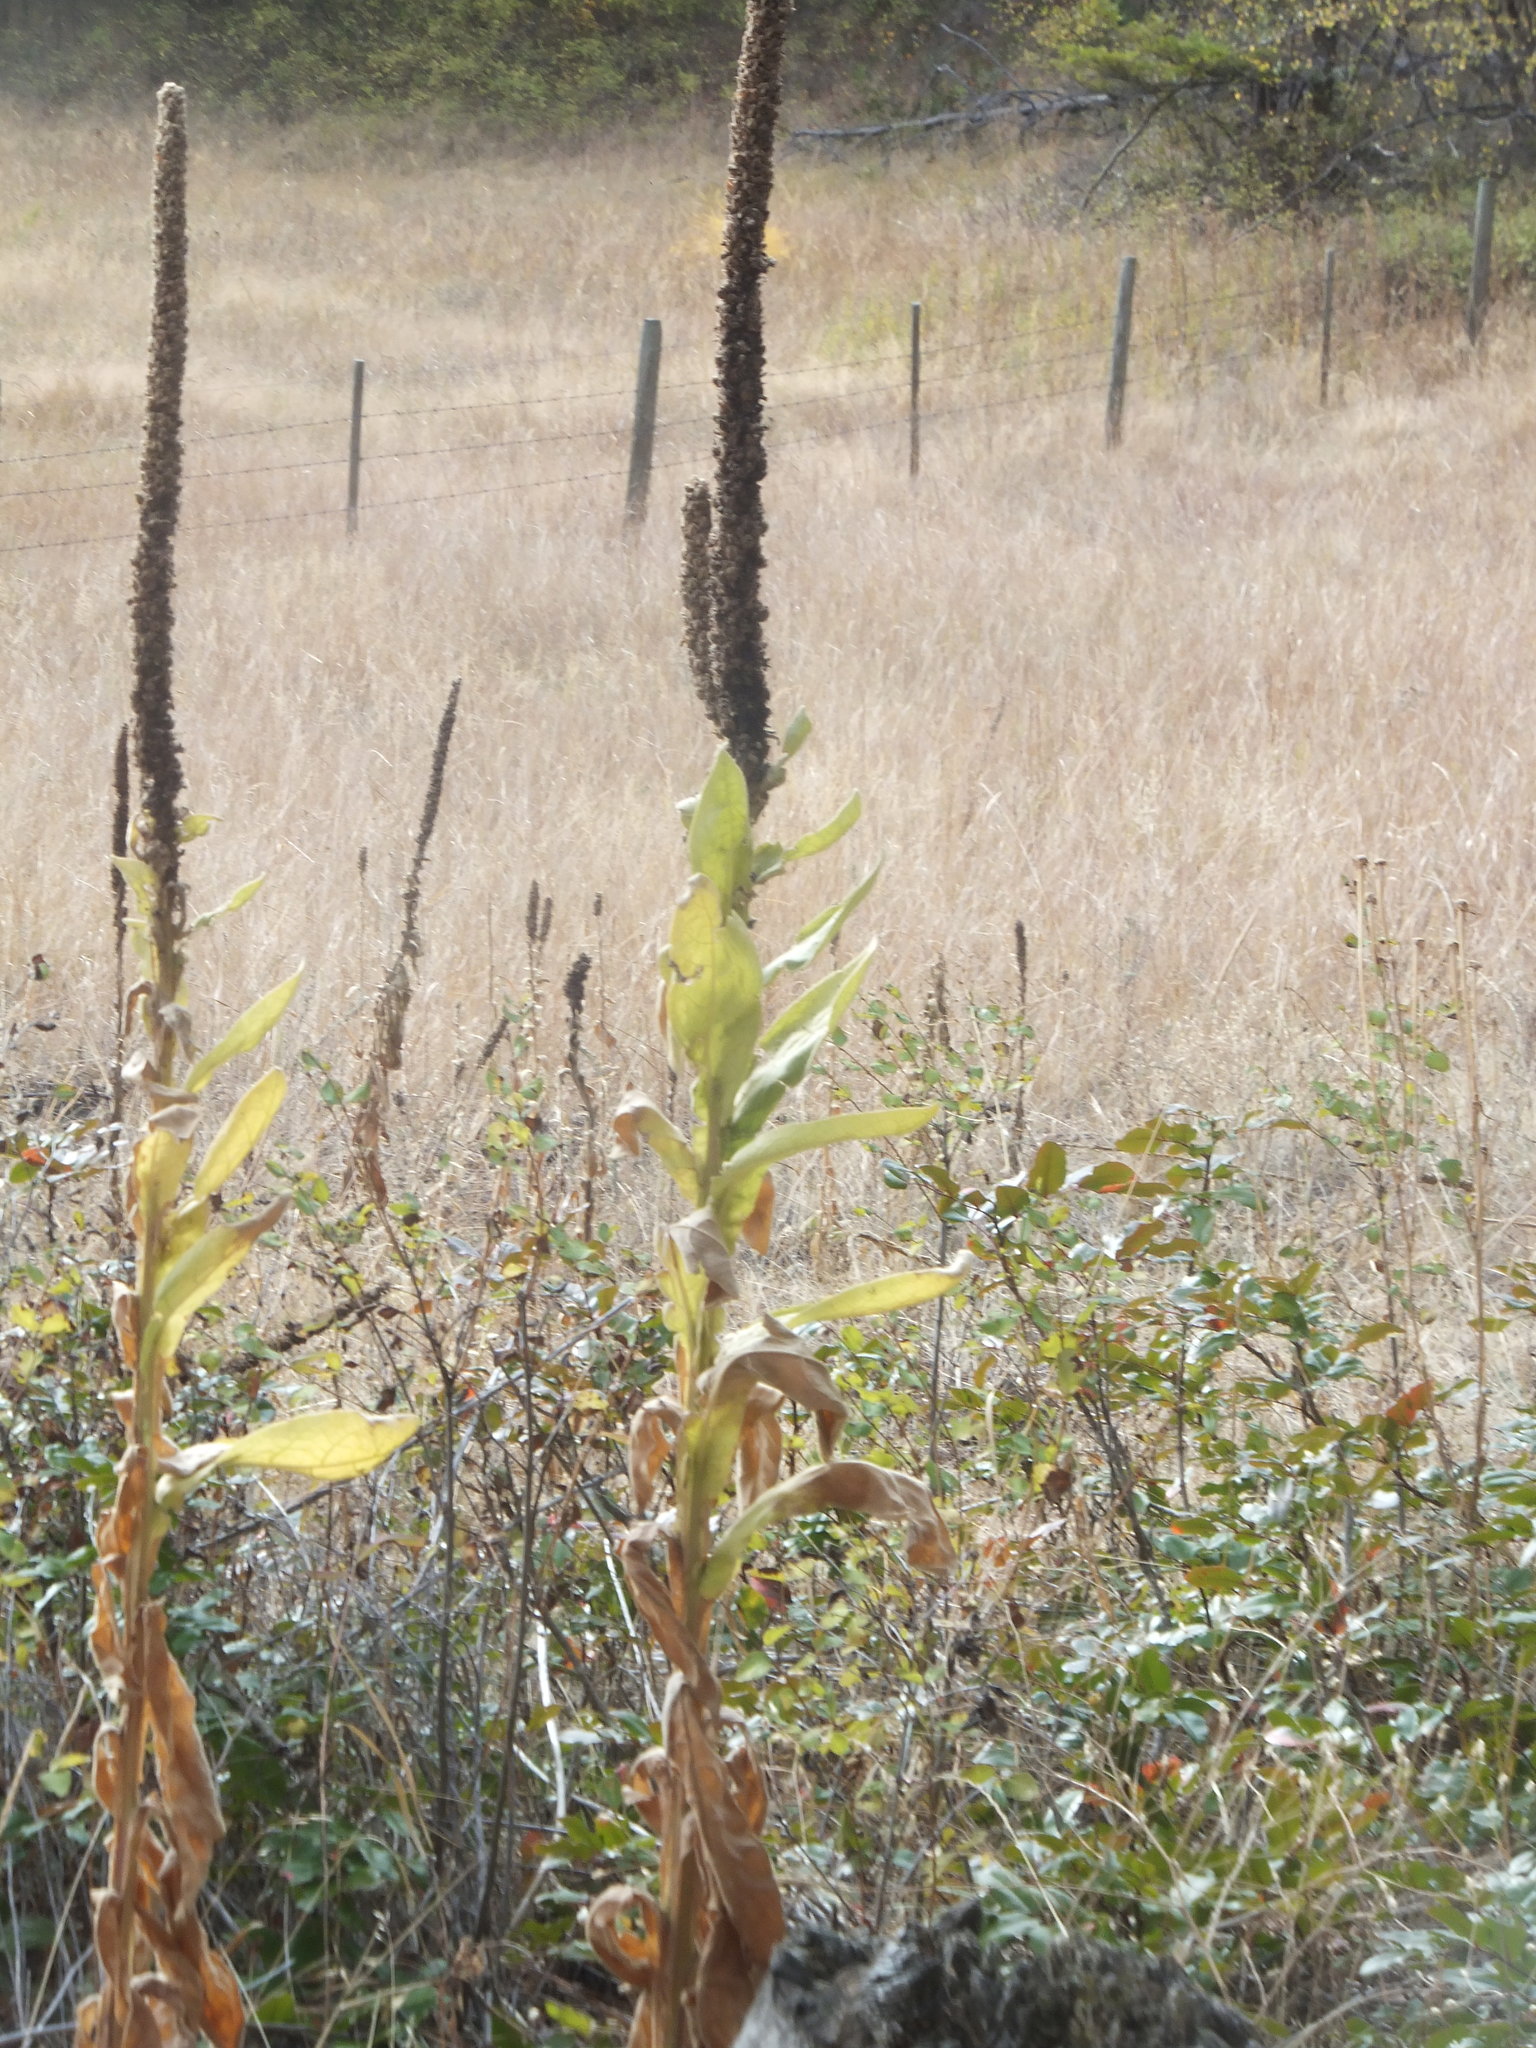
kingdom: Plantae
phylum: Tracheophyta
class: Magnoliopsida
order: Lamiales
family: Scrophulariaceae
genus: Verbascum
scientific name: Verbascum thapsus
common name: Common mullein
